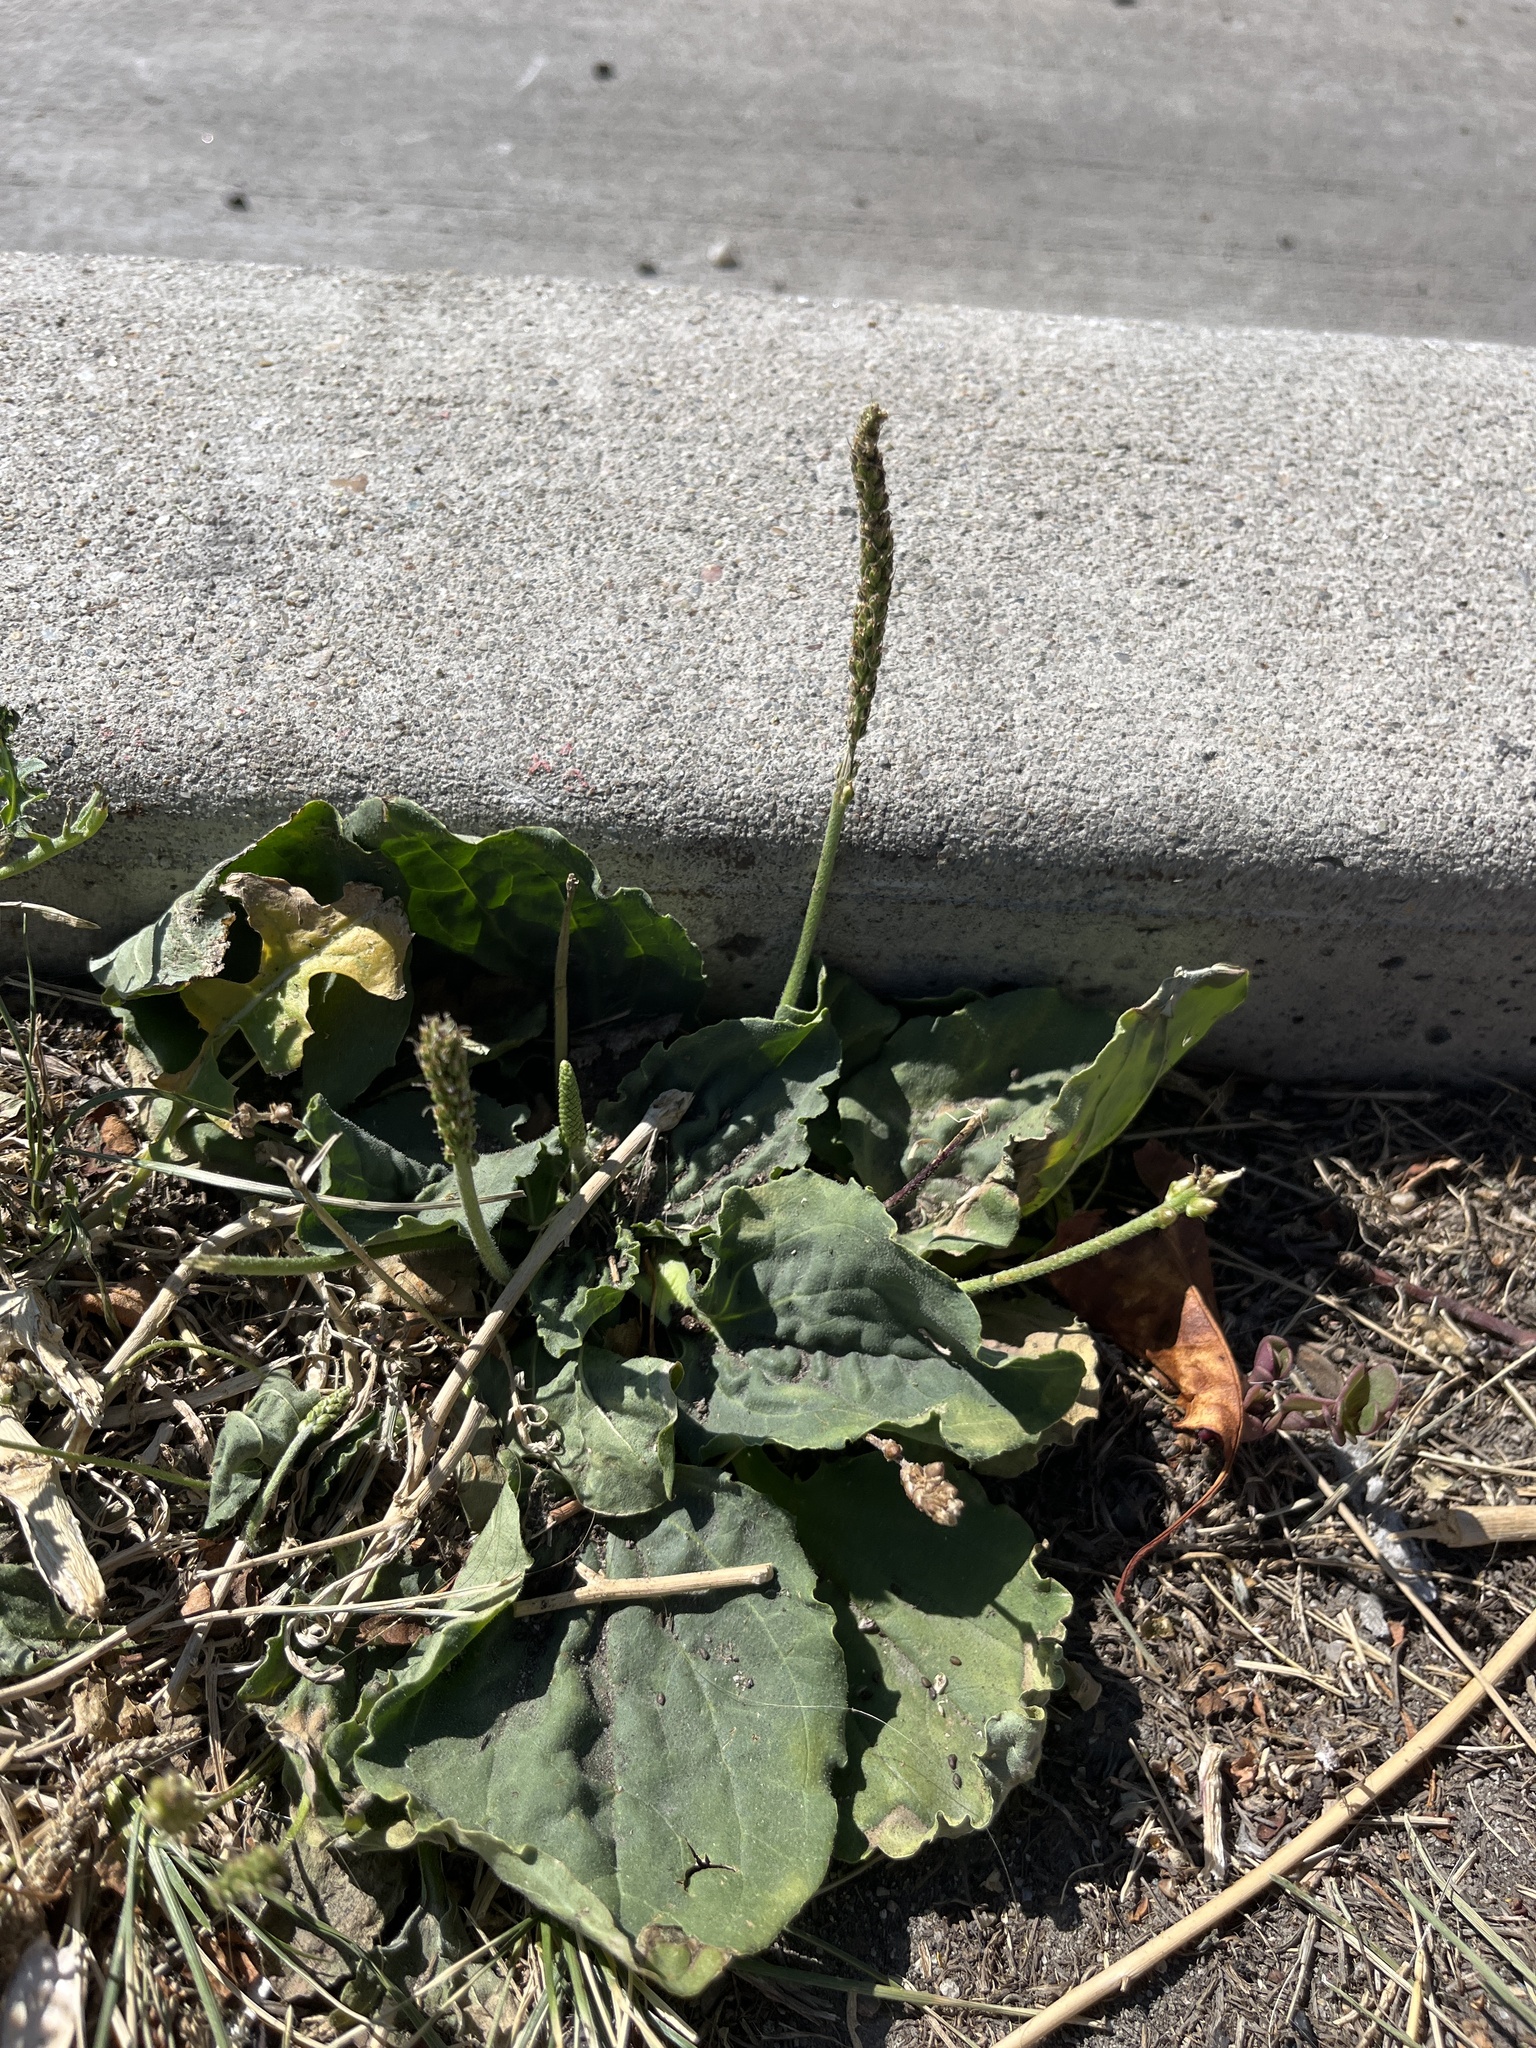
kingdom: Plantae
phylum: Tracheophyta
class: Magnoliopsida
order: Lamiales
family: Plantaginaceae
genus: Plantago
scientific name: Plantago major
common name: Common plantain
